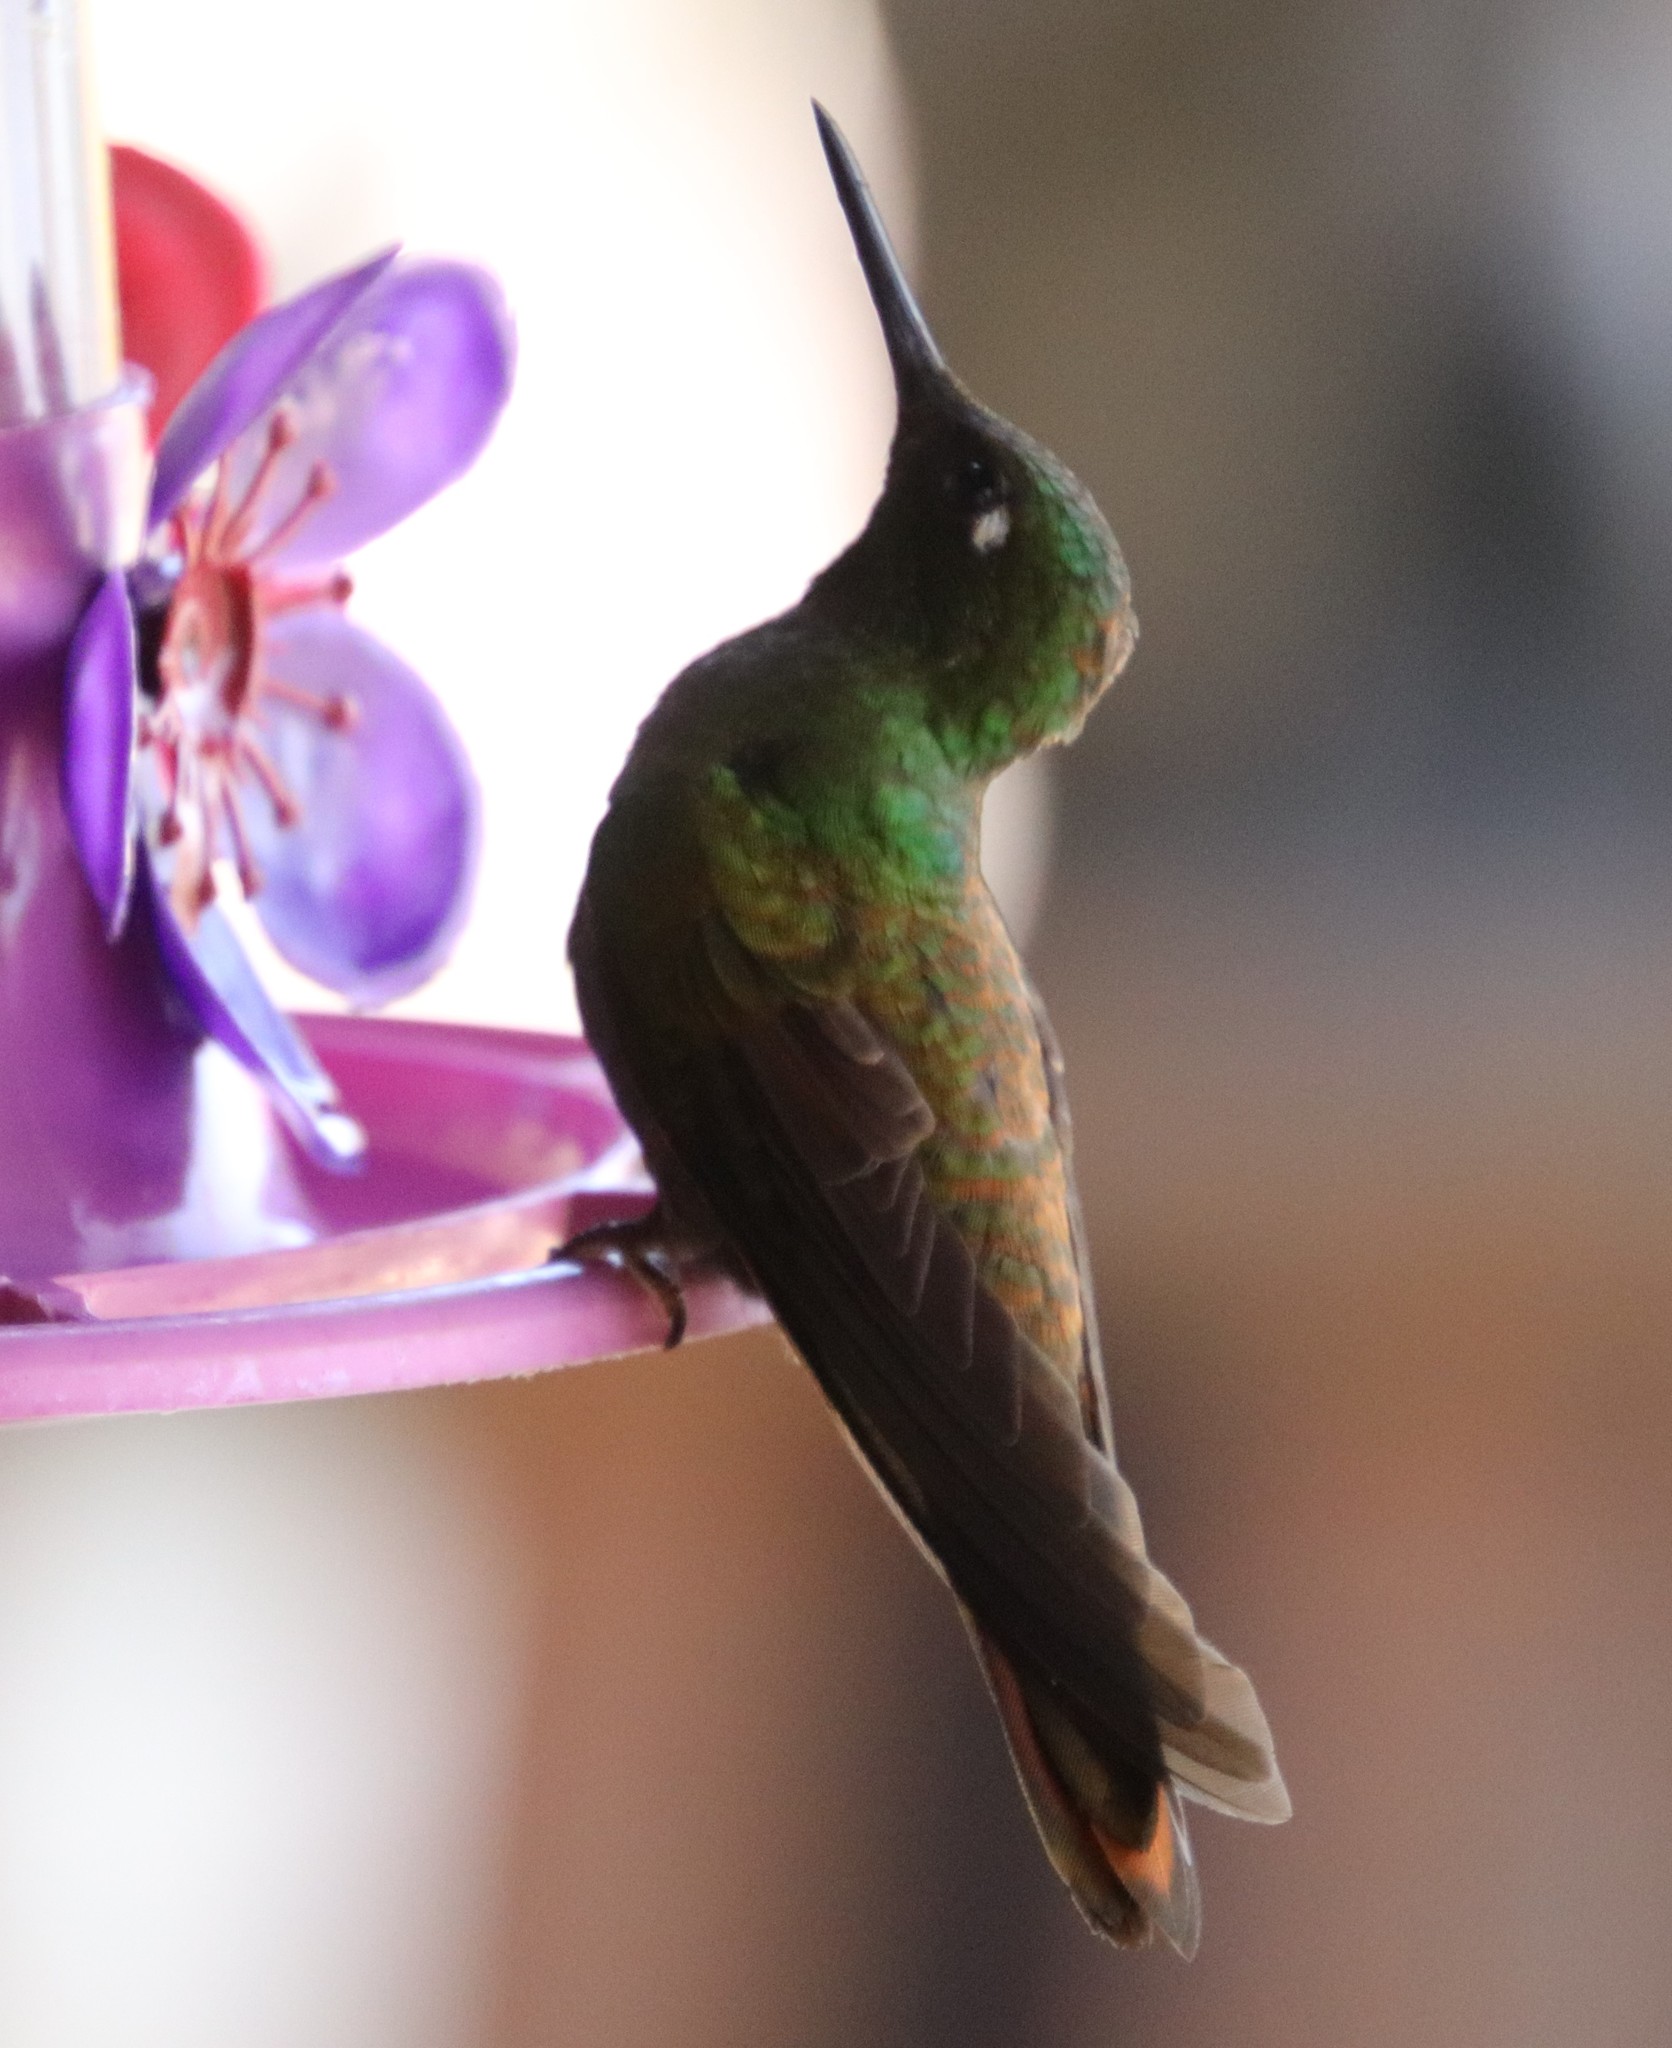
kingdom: Animalia
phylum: Chordata
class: Aves
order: Apodiformes
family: Trochilidae
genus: Clytolaema
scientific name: Clytolaema rubricauda
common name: Brazilian ruby
